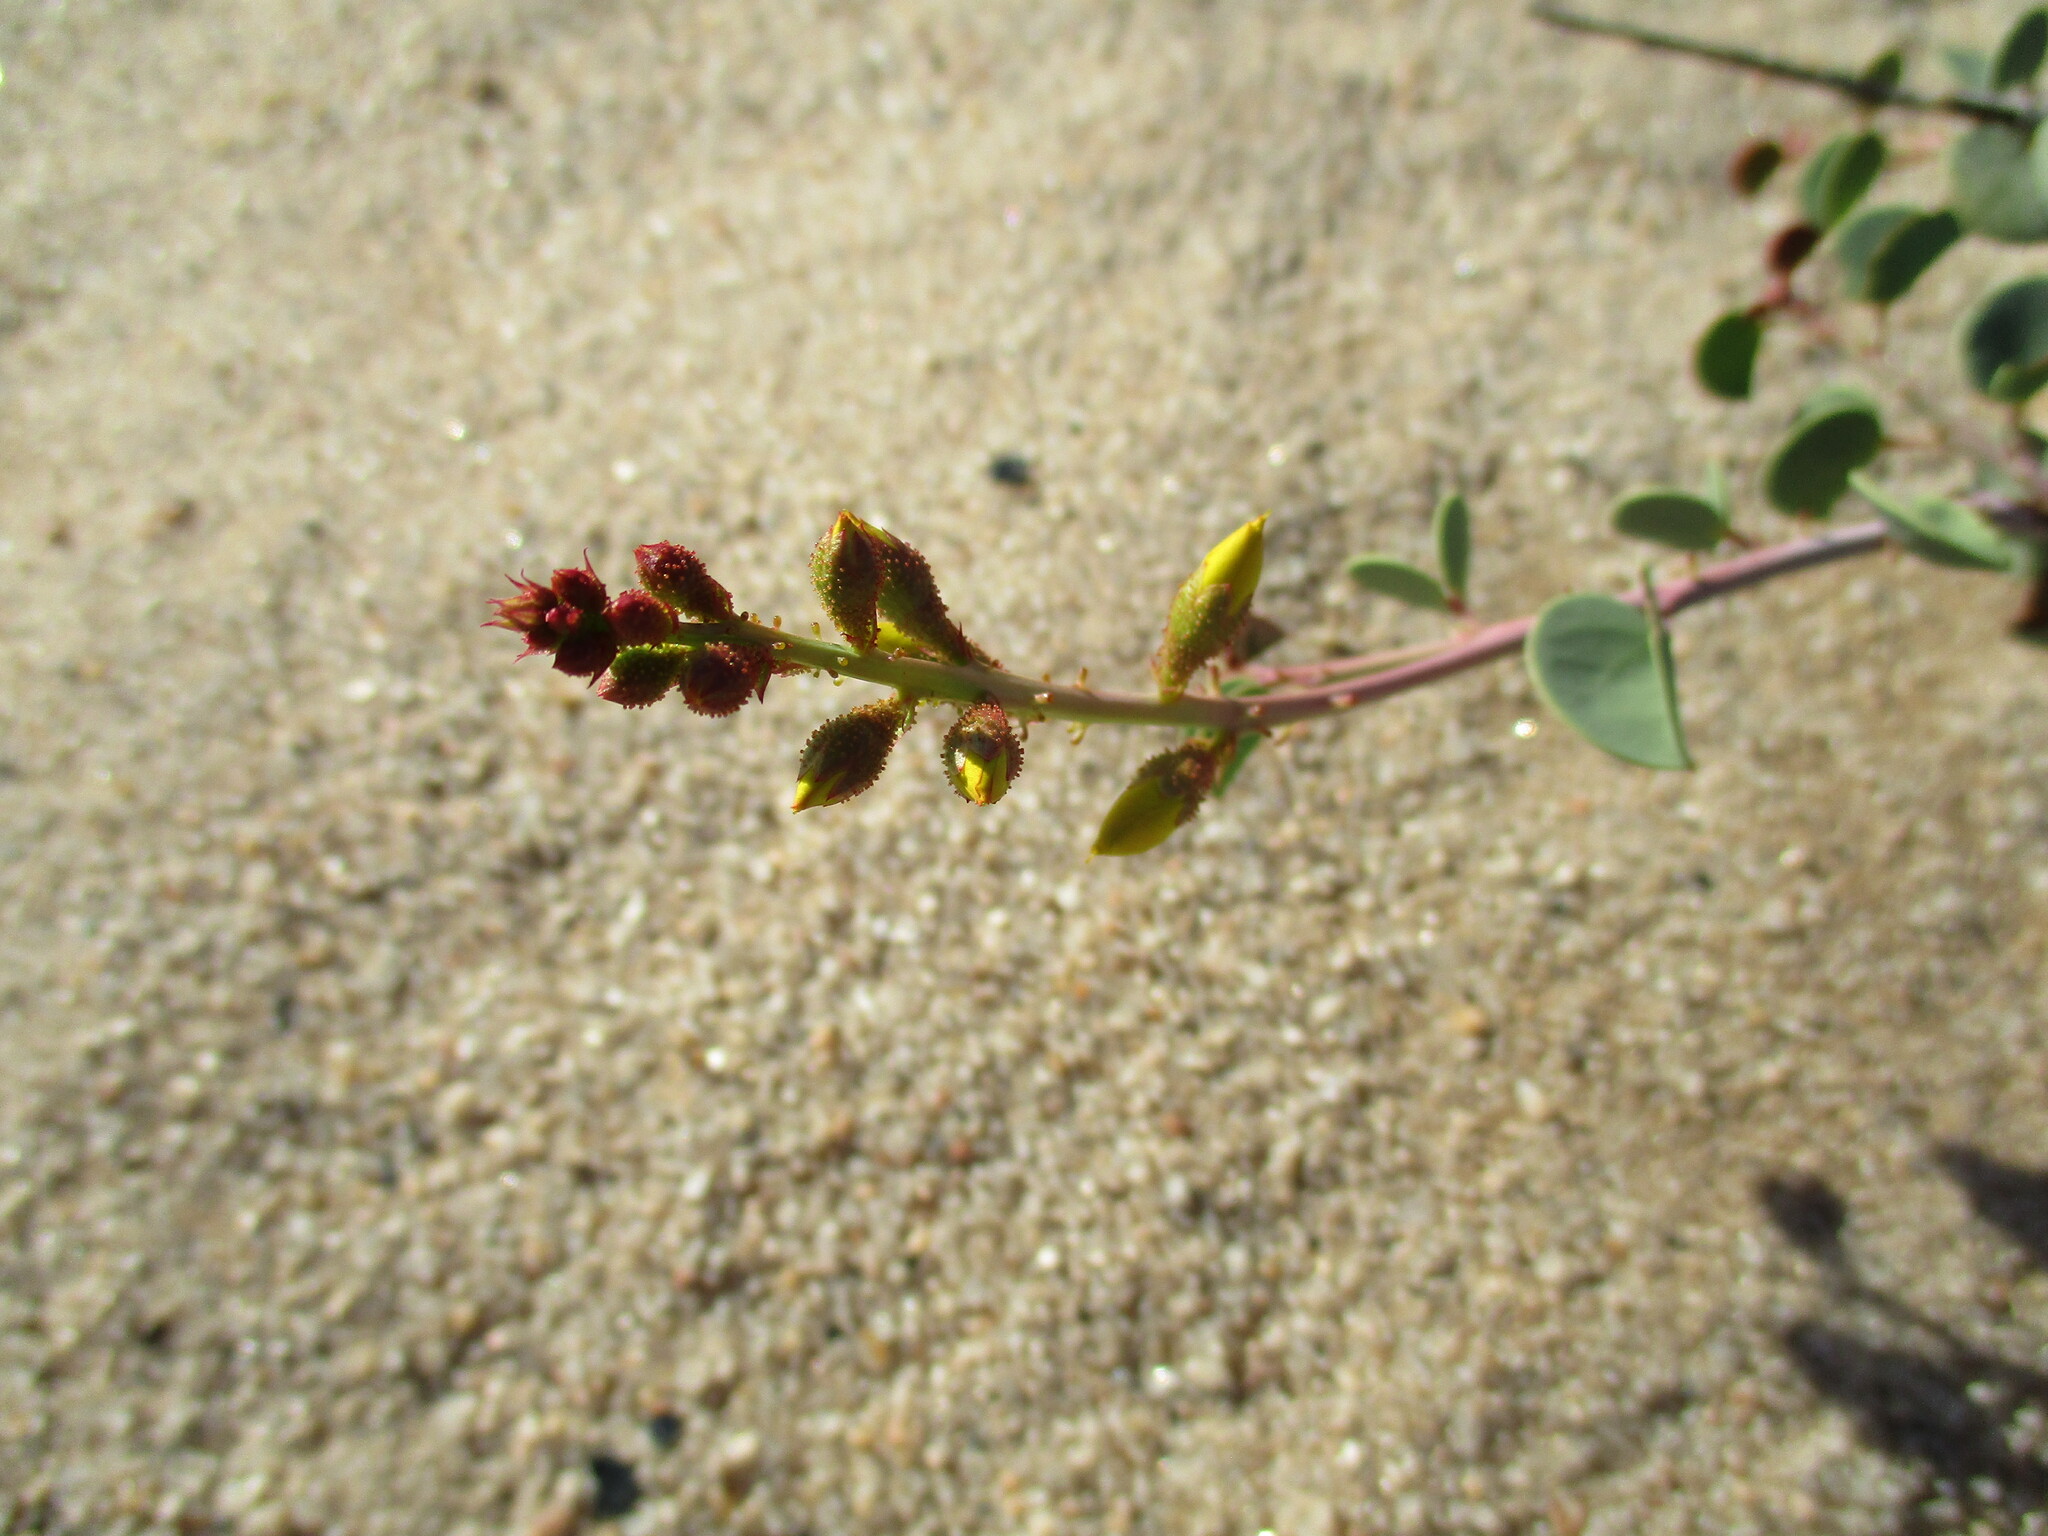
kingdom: Plantae
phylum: Tracheophyta
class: Magnoliopsida
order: Fabales
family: Fabaceae
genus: Adenolobus
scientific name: Adenolobus pechuelii
